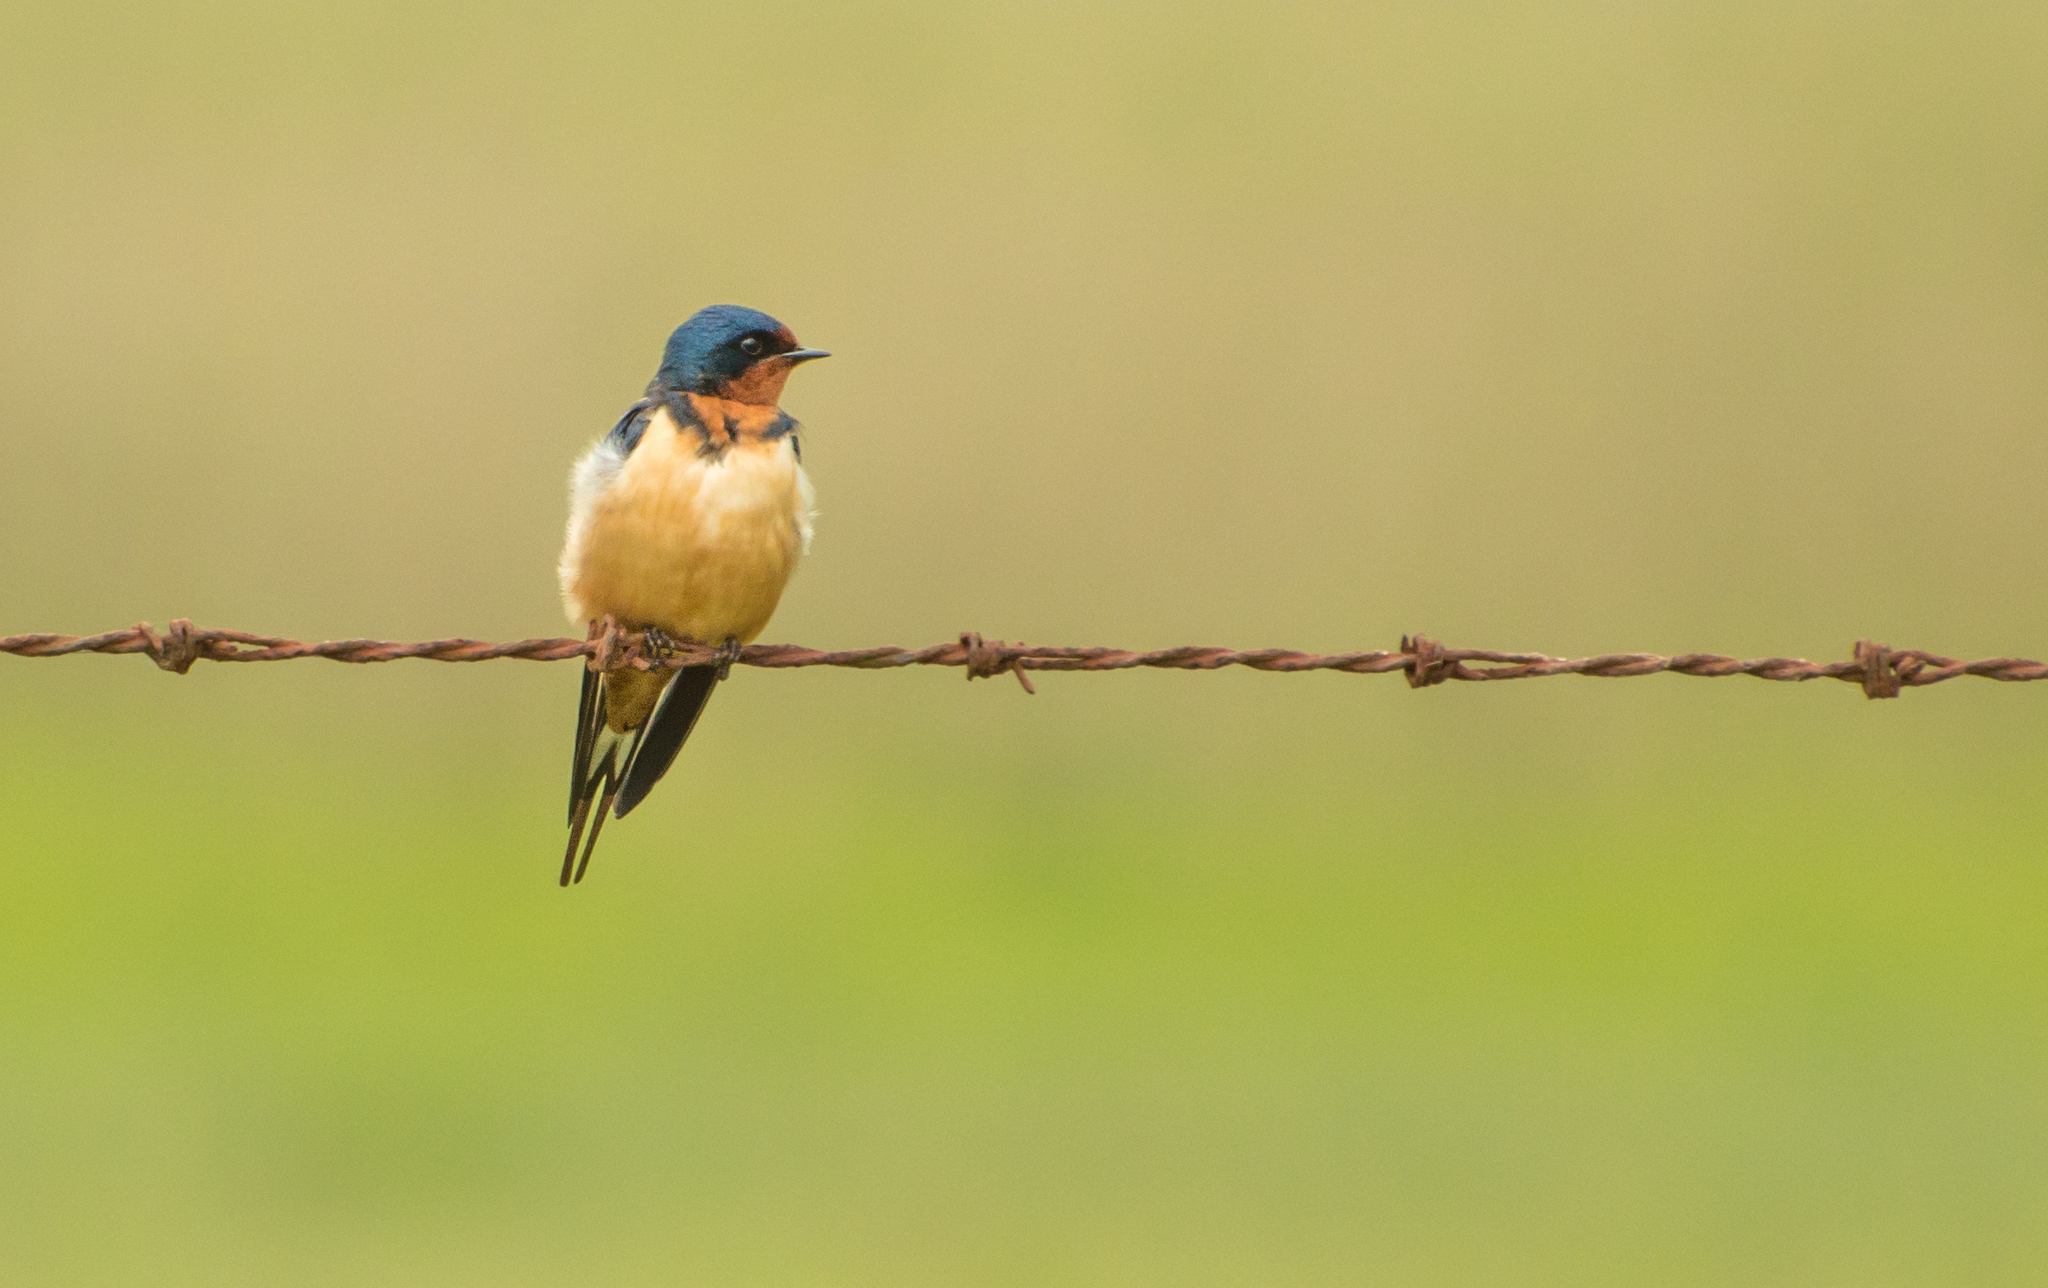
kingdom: Animalia
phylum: Chordata
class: Aves
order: Passeriformes
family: Hirundinidae
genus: Hirundo
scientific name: Hirundo rustica
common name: Barn swallow
